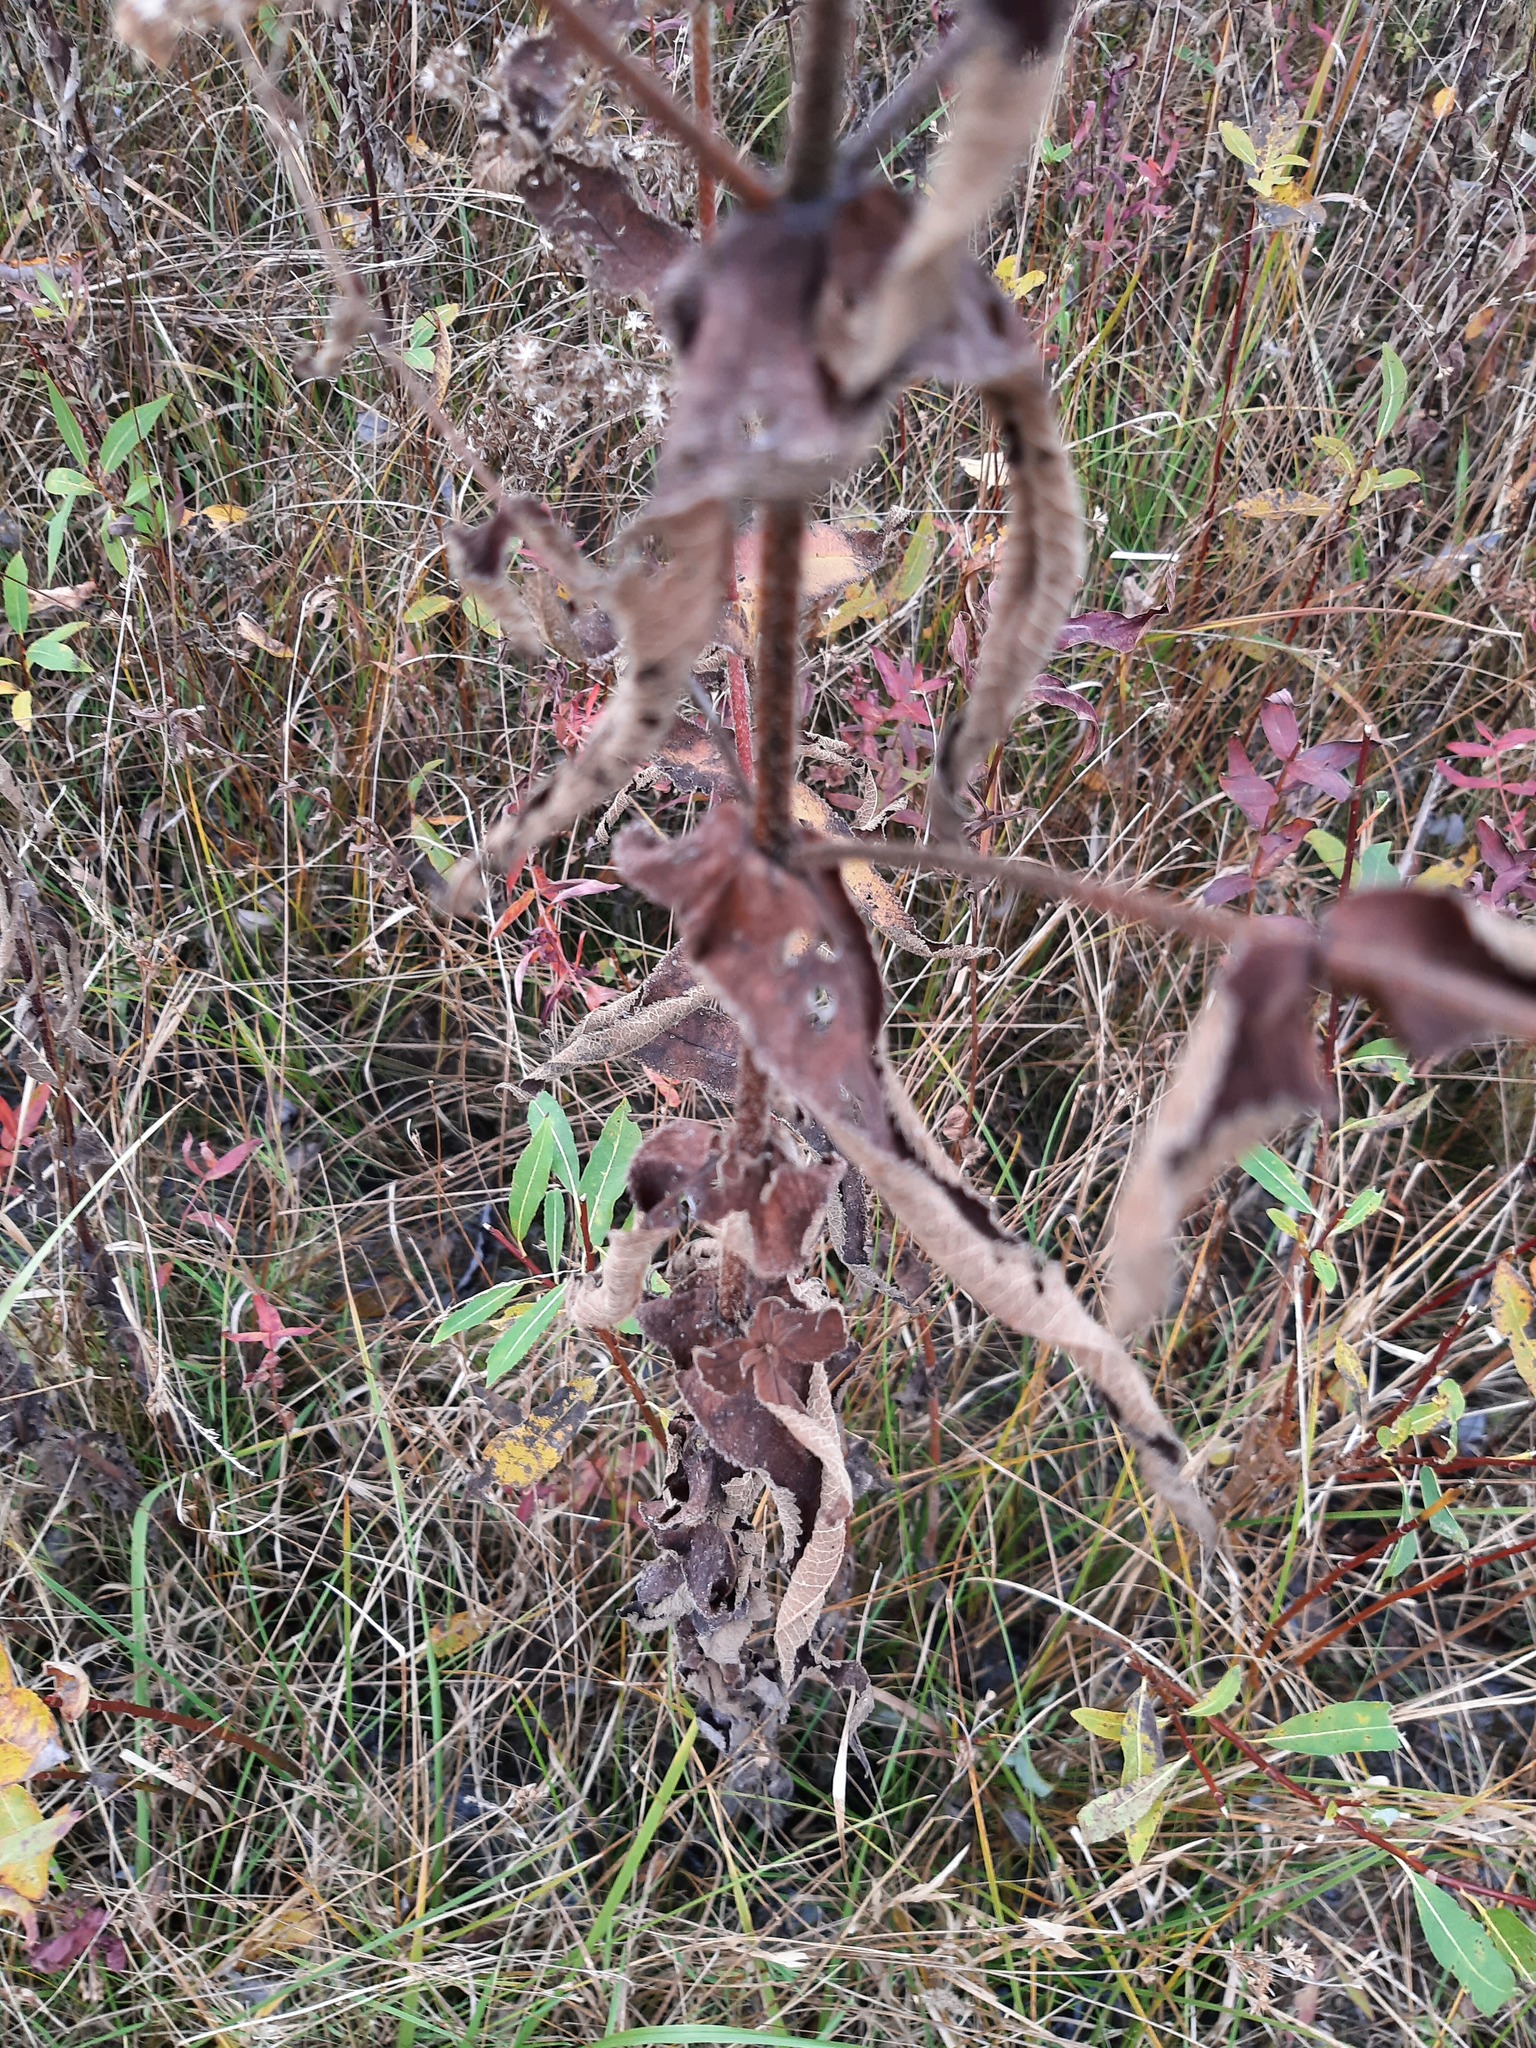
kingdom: Plantae
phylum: Tracheophyta
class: Magnoliopsida
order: Asterales
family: Asteraceae
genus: Eupatorium
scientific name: Eupatorium perfoliatum
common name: Boneset
